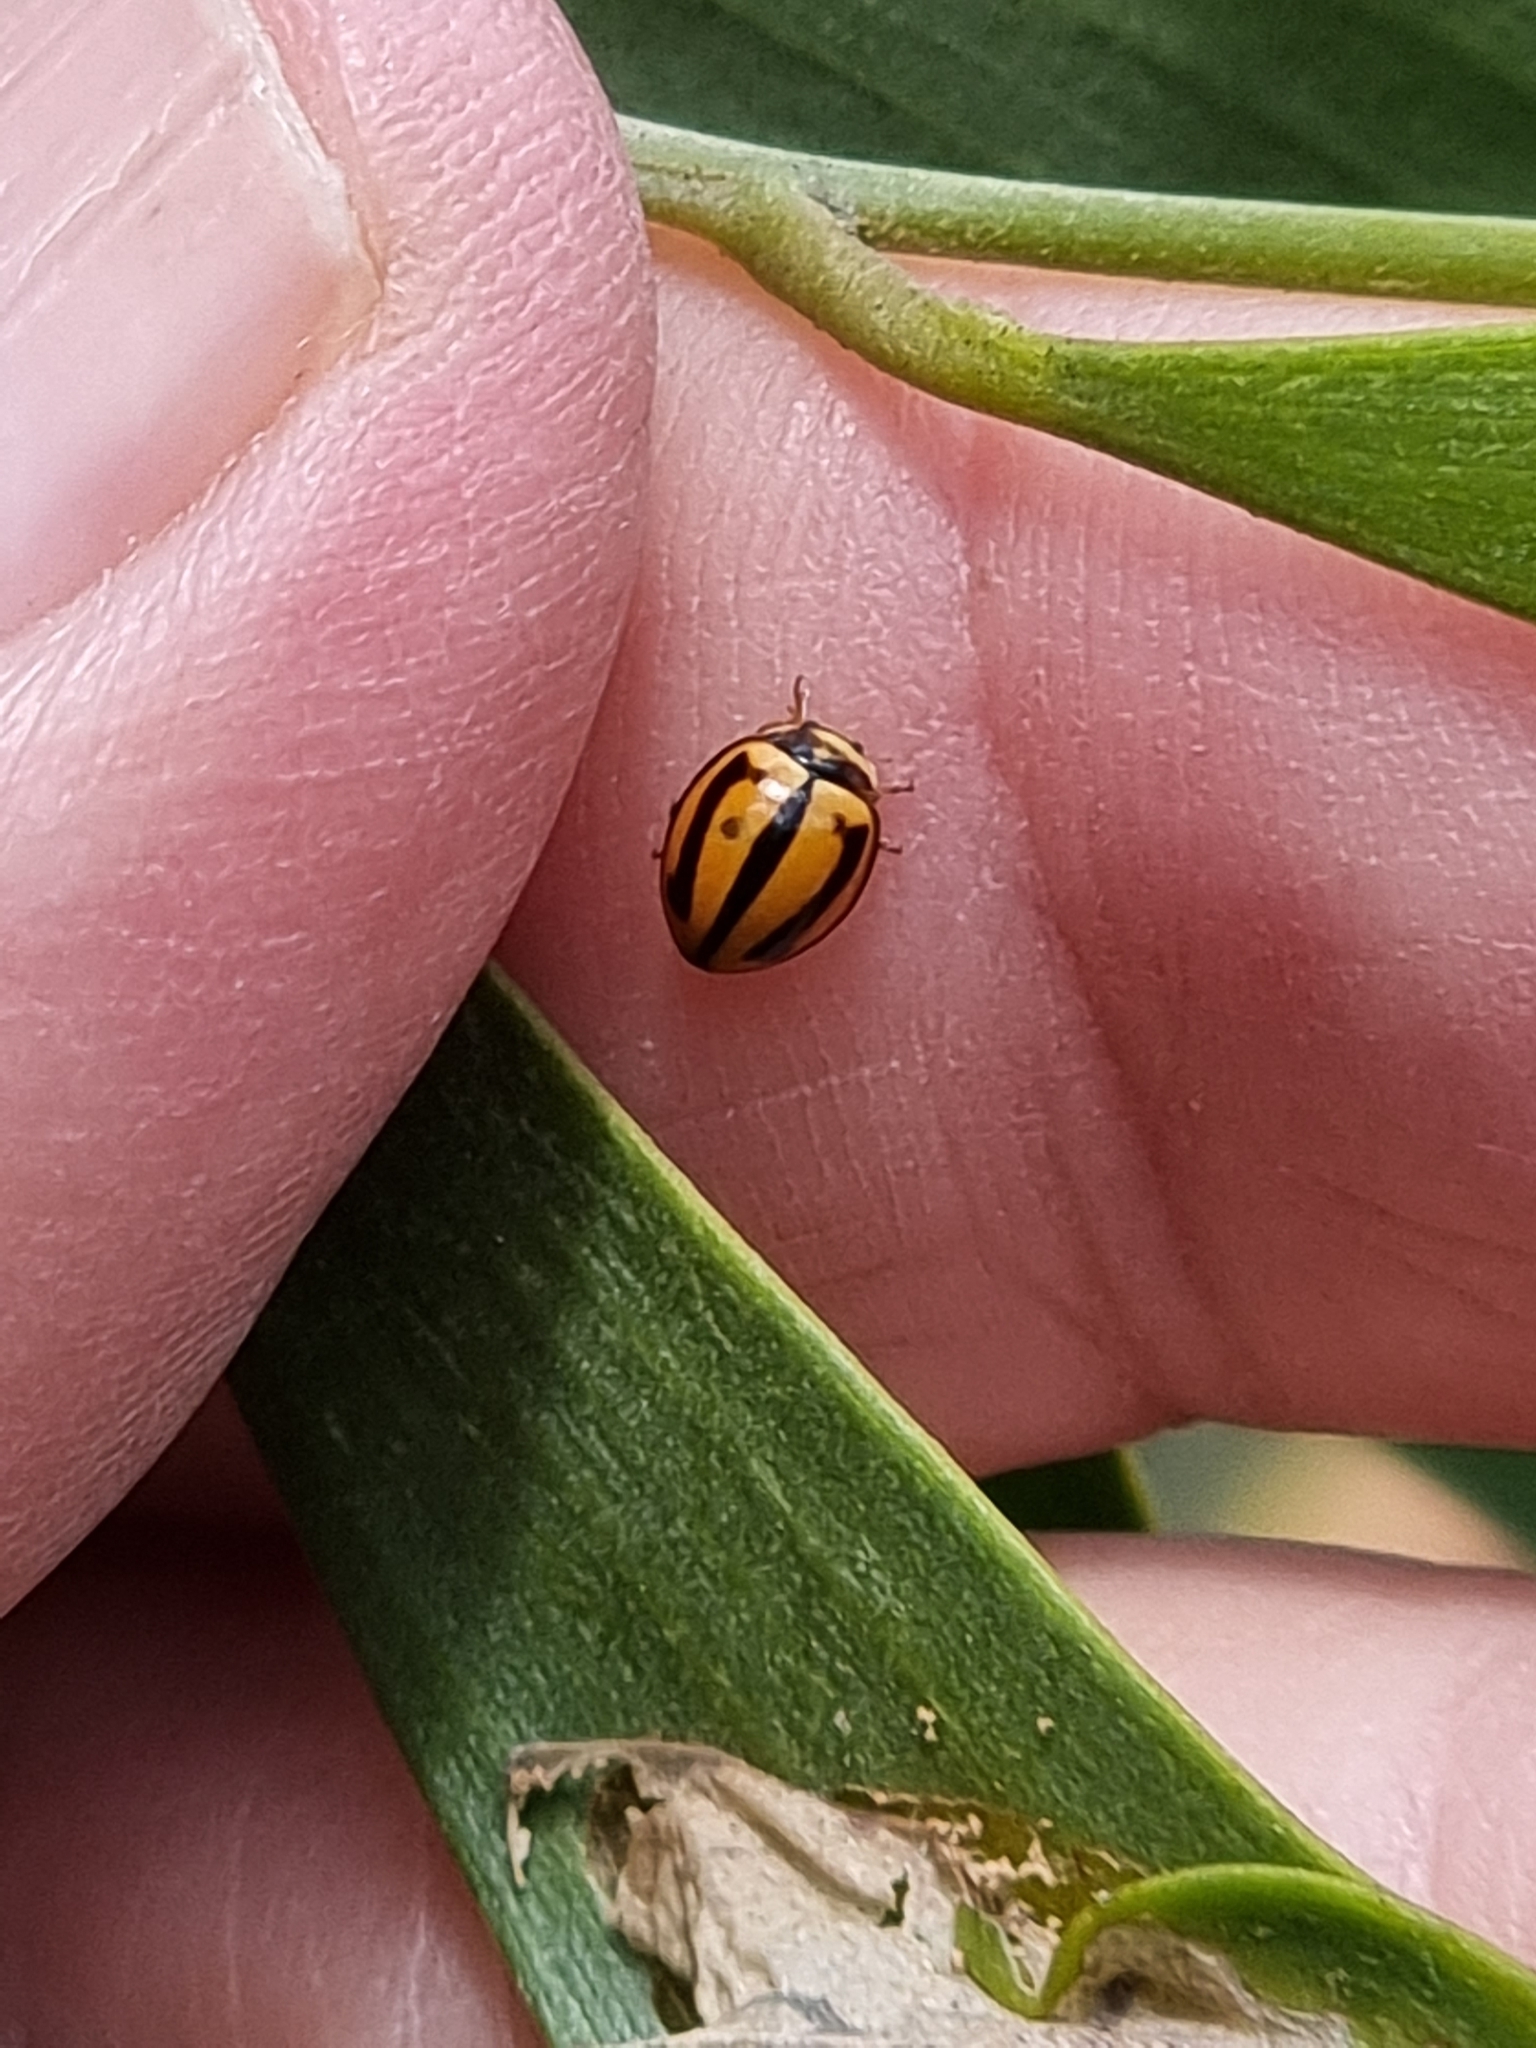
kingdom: Animalia
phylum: Arthropoda
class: Insecta
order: Coleoptera
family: Coccinellidae
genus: Micraspis
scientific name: Micraspis frenata
